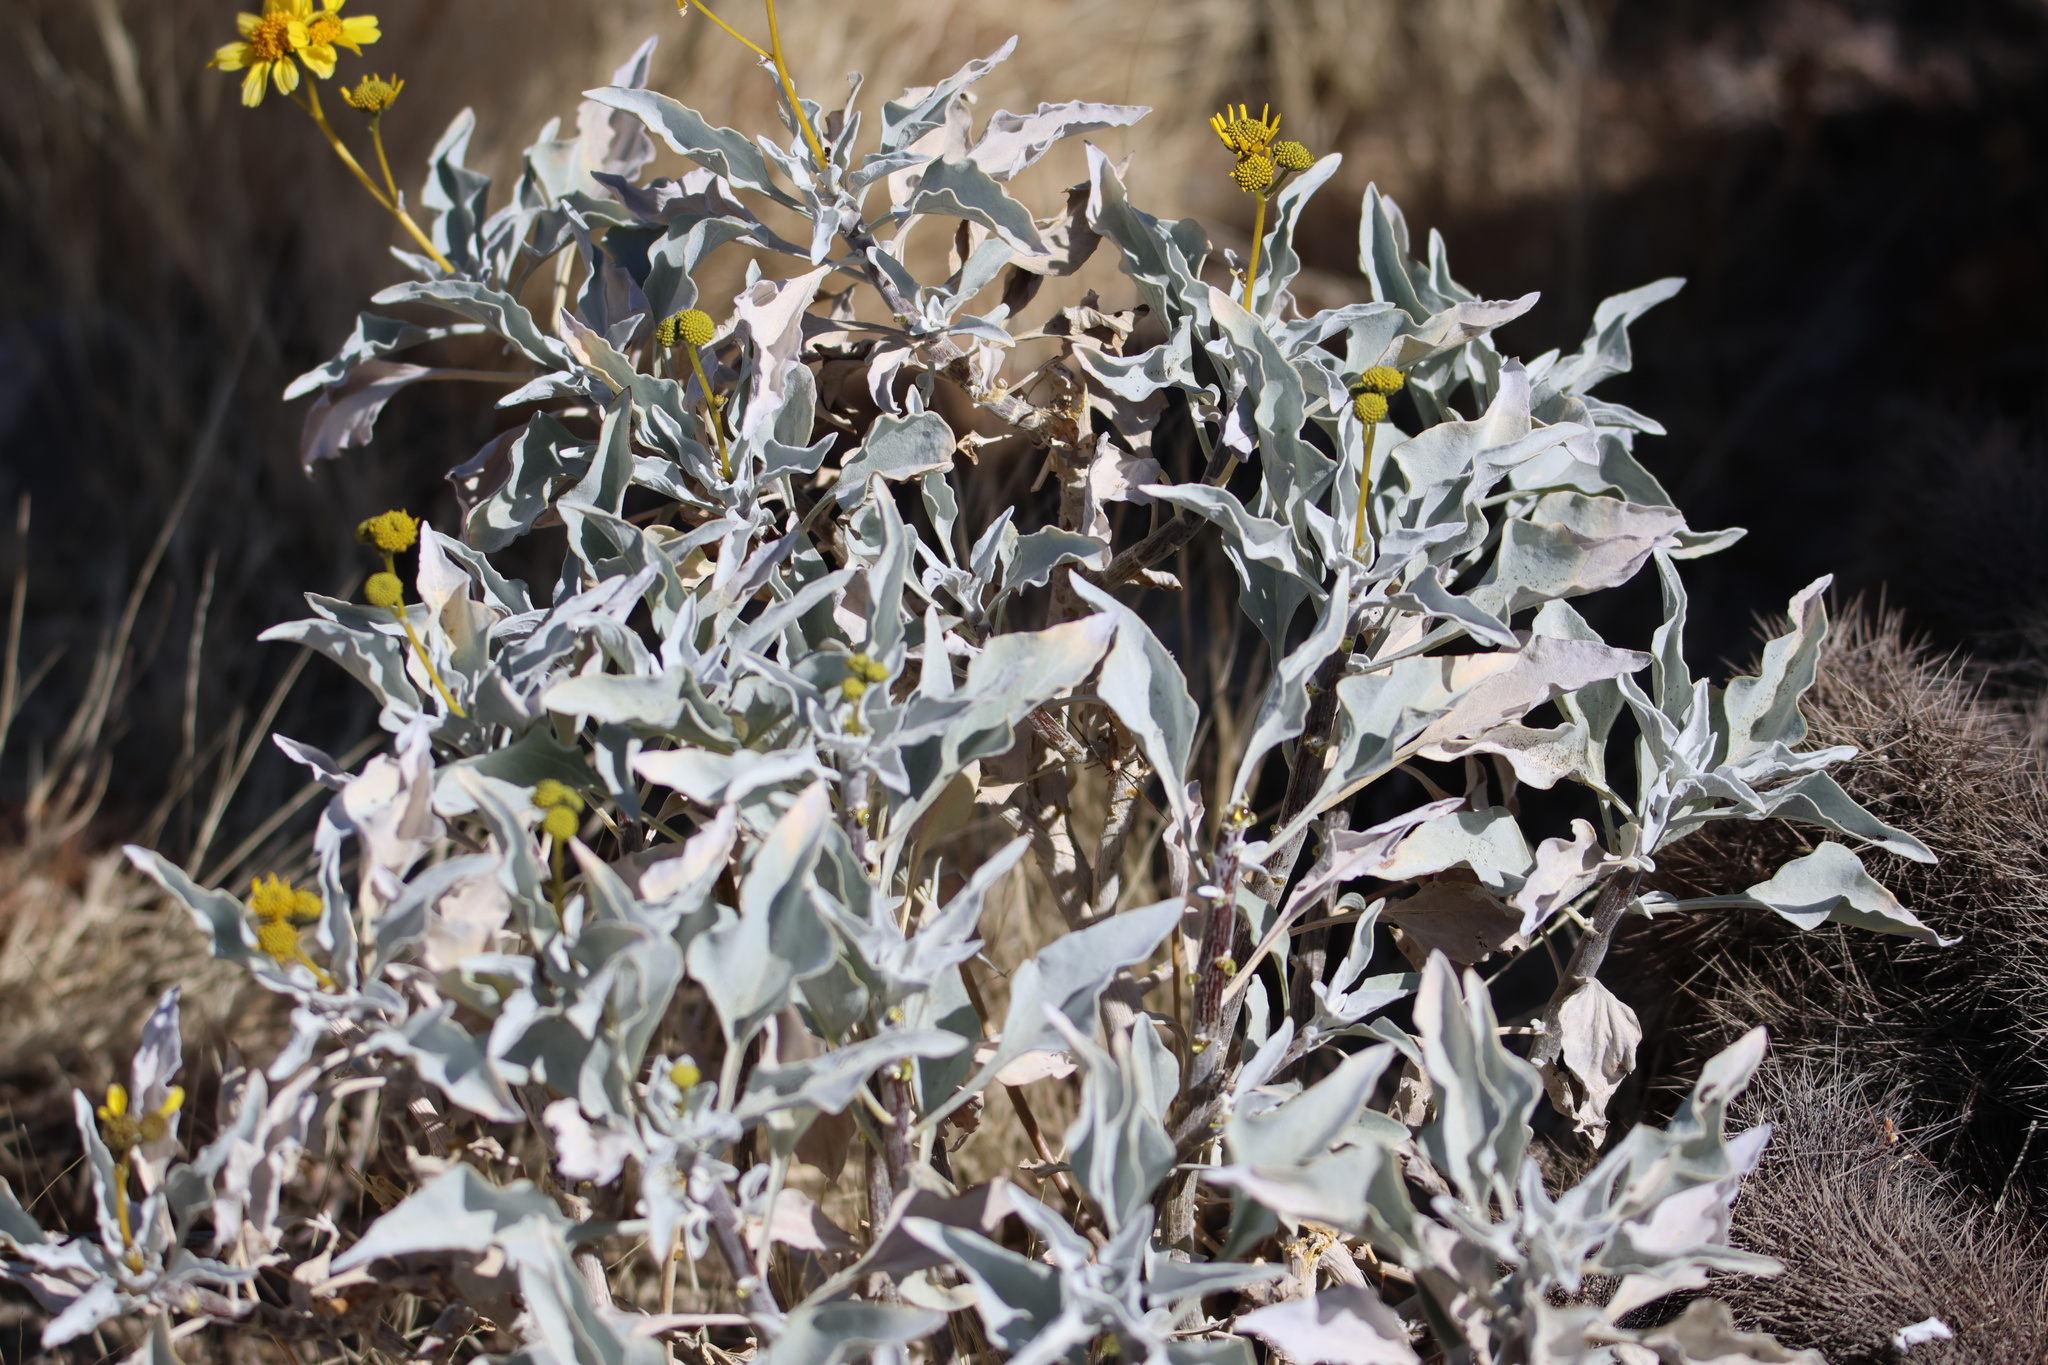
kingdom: Plantae
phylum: Tracheophyta
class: Magnoliopsida
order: Asterales
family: Asteraceae
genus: Encelia
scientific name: Encelia farinosa
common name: Brittlebush
